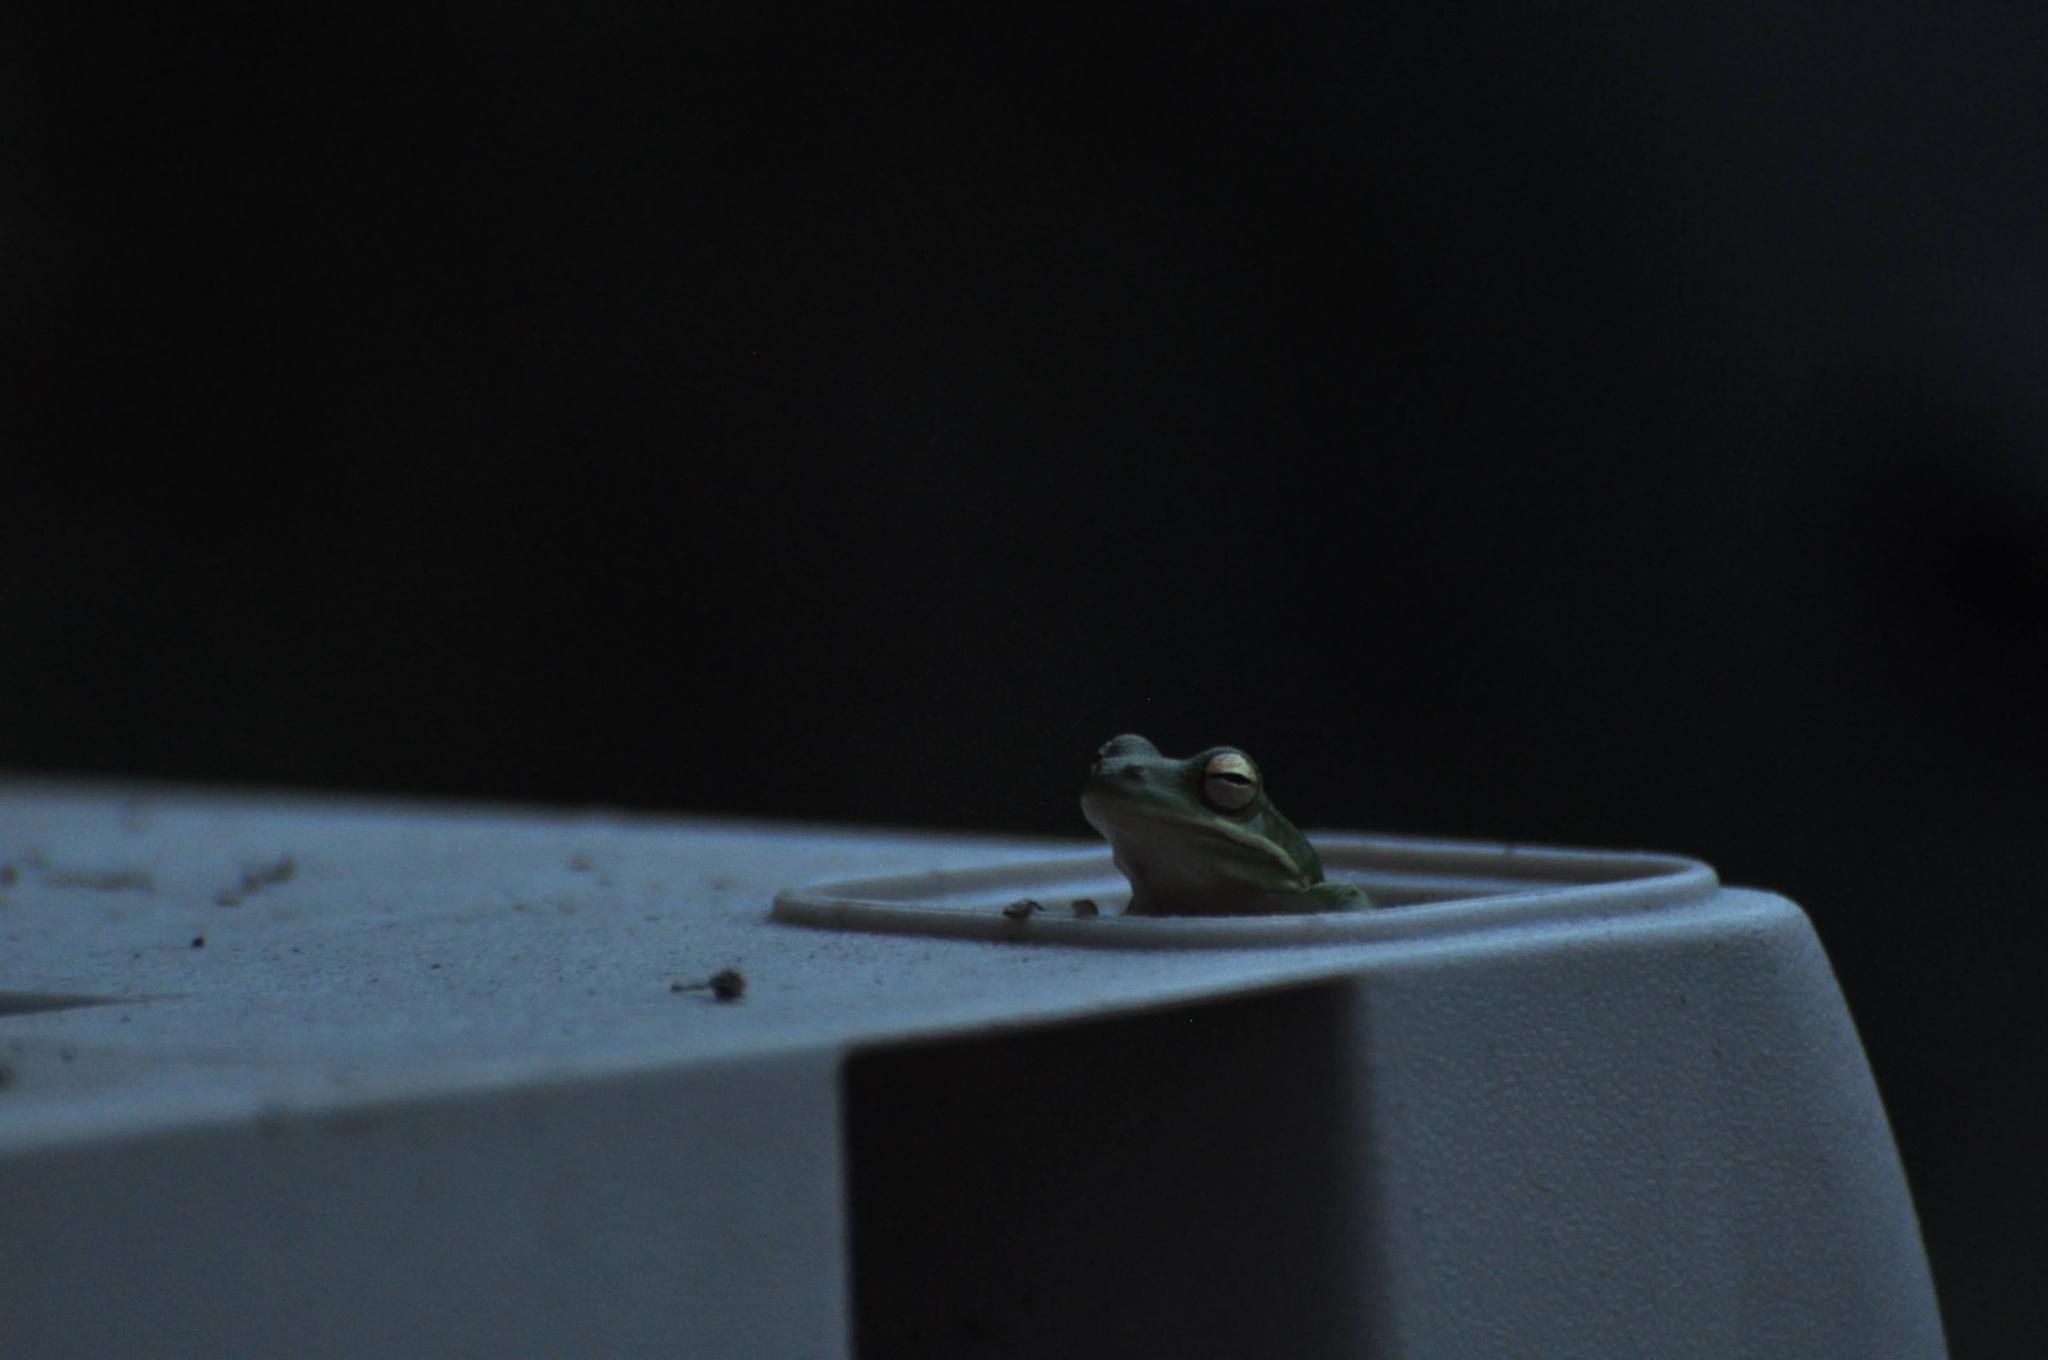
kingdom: Animalia
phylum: Chordata
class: Amphibia
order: Anura
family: Hylidae
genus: Dryophytes
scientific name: Dryophytes cinereus
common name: Green treefrog
